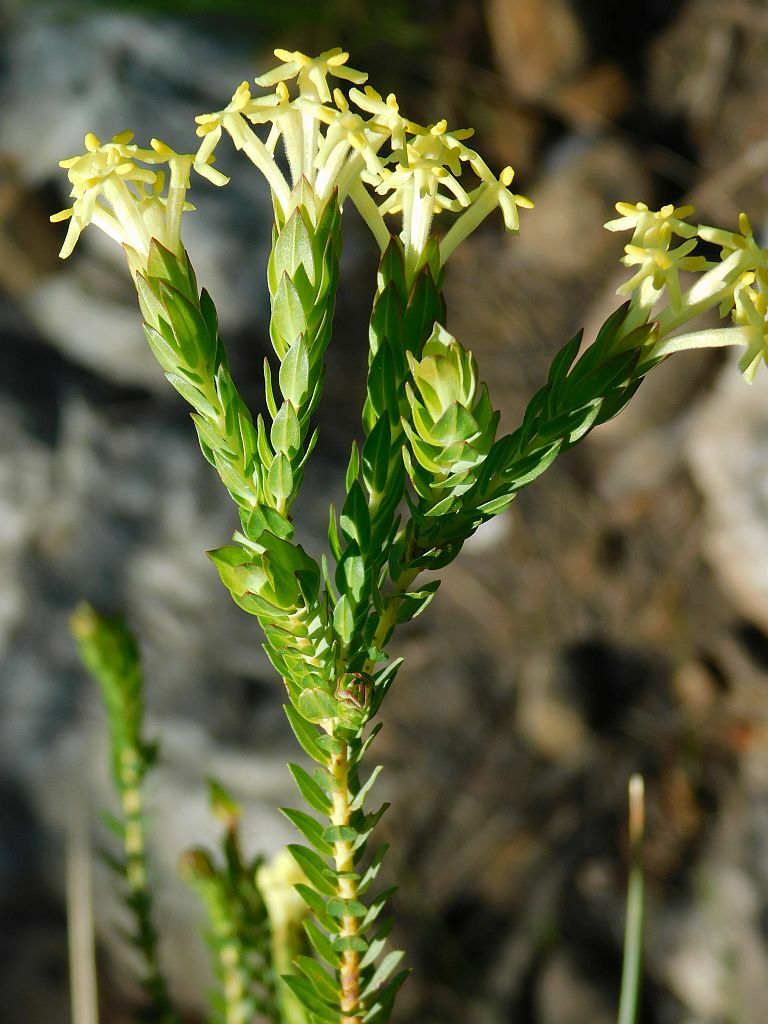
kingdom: Plantae
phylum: Tracheophyta
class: Magnoliopsida
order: Malvales
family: Thymelaeaceae
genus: Gnidia
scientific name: Gnidia oppositifolia
